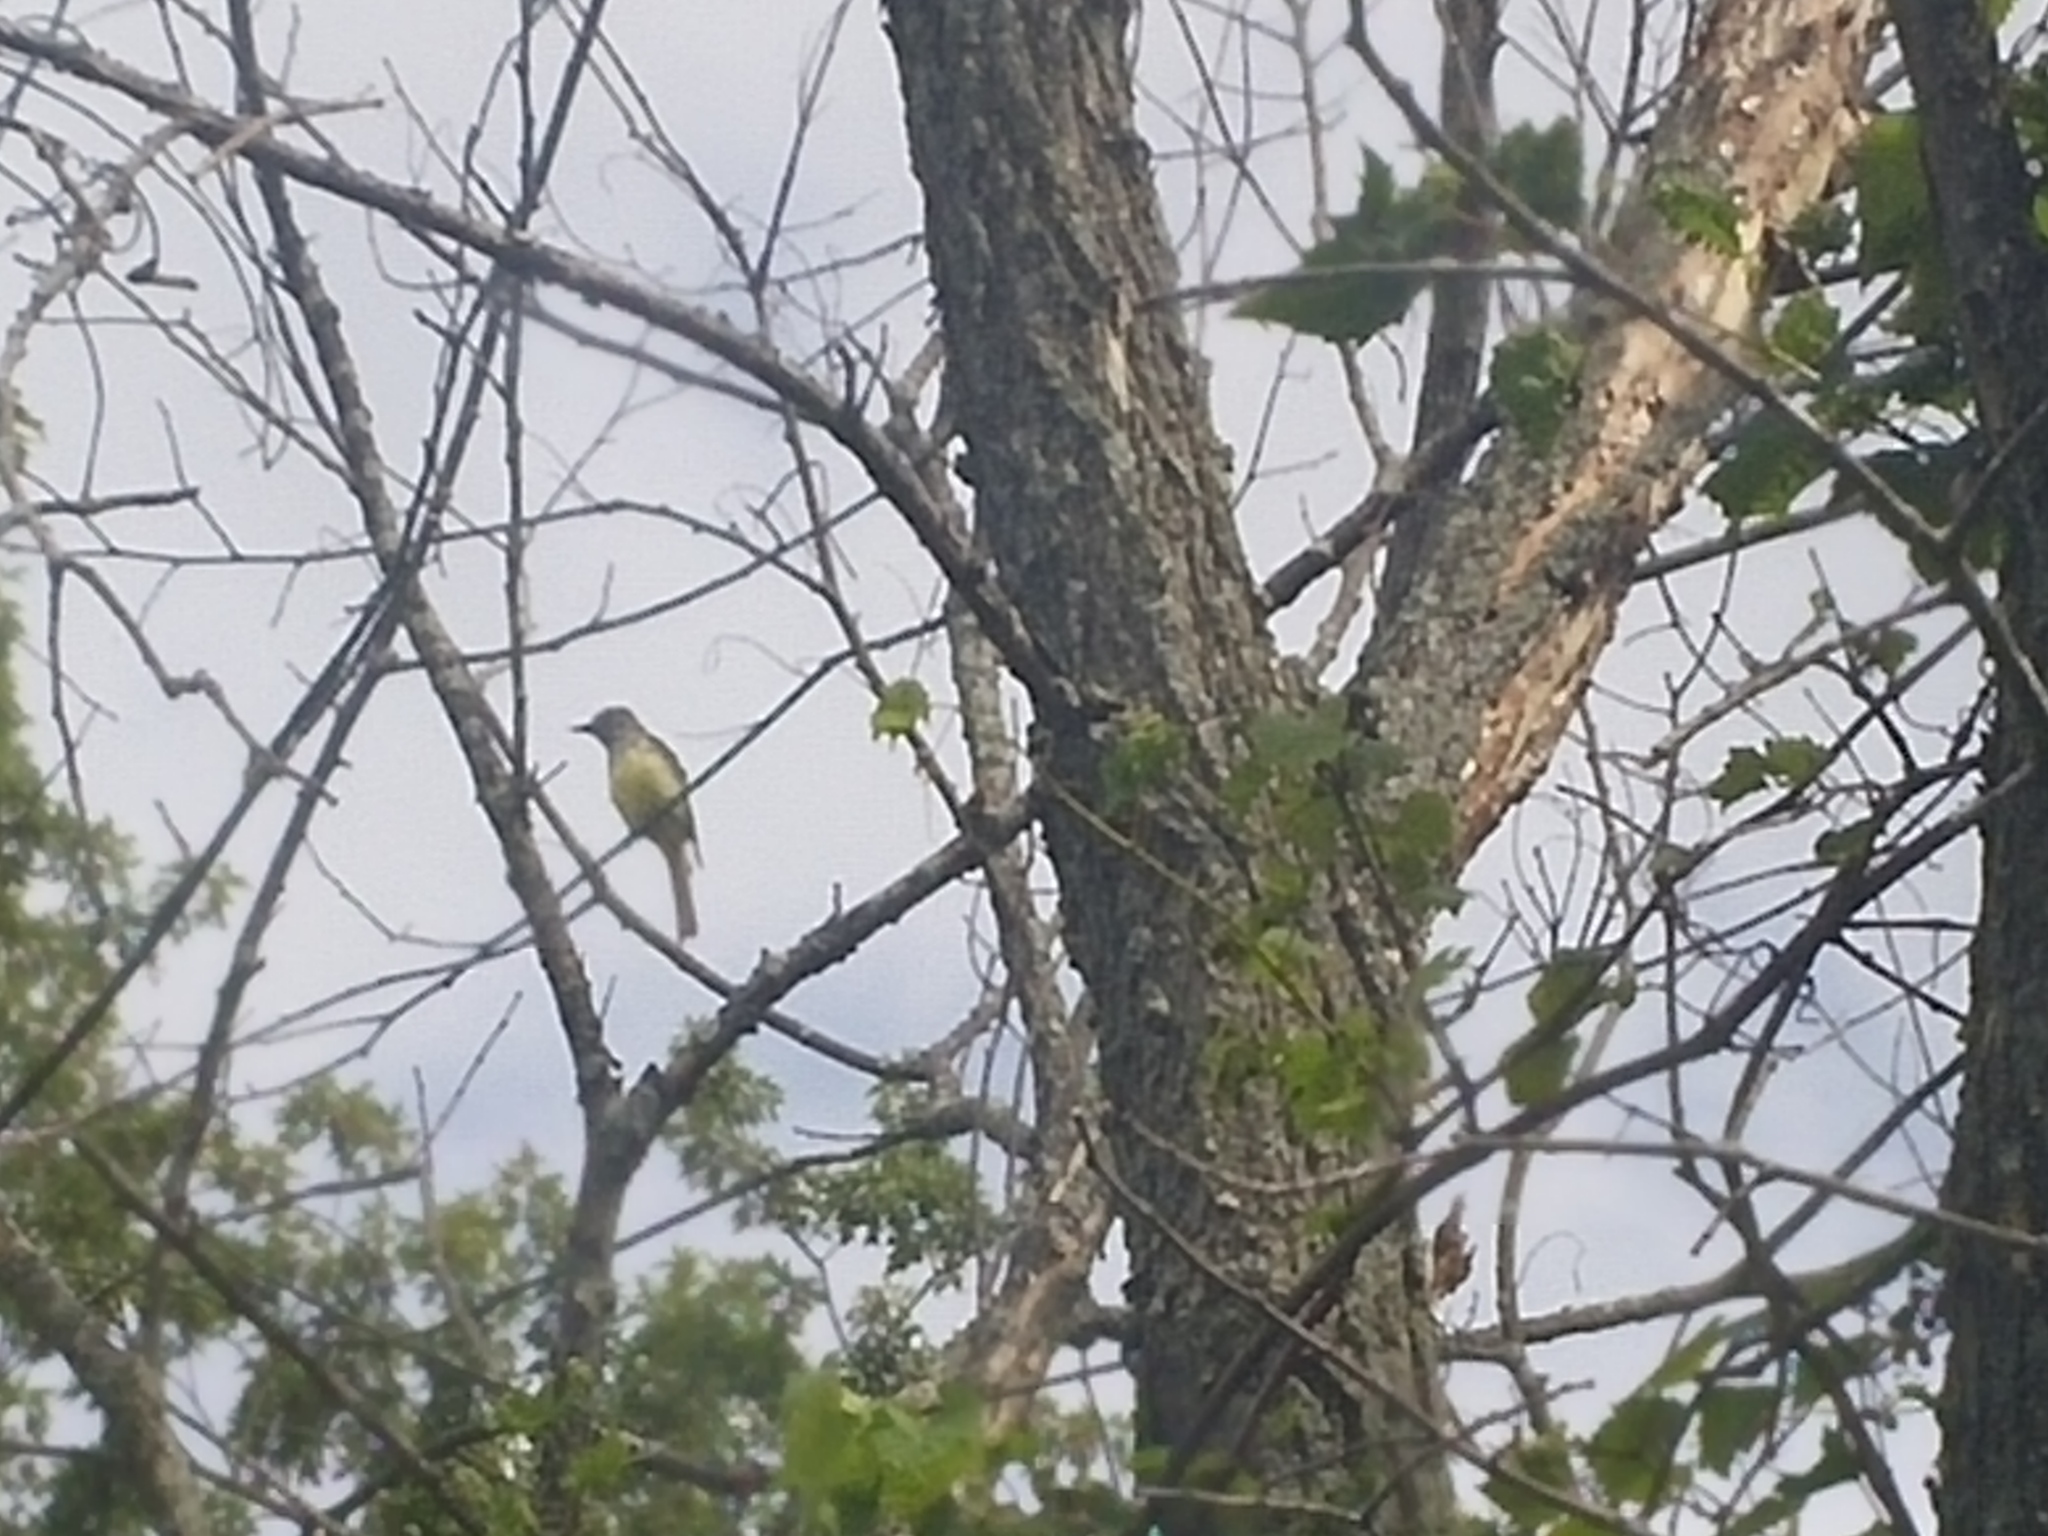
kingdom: Animalia
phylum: Chordata
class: Aves
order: Passeriformes
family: Tyrannidae
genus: Myiarchus
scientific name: Myiarchus crinitus
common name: Great crested flycatcher
